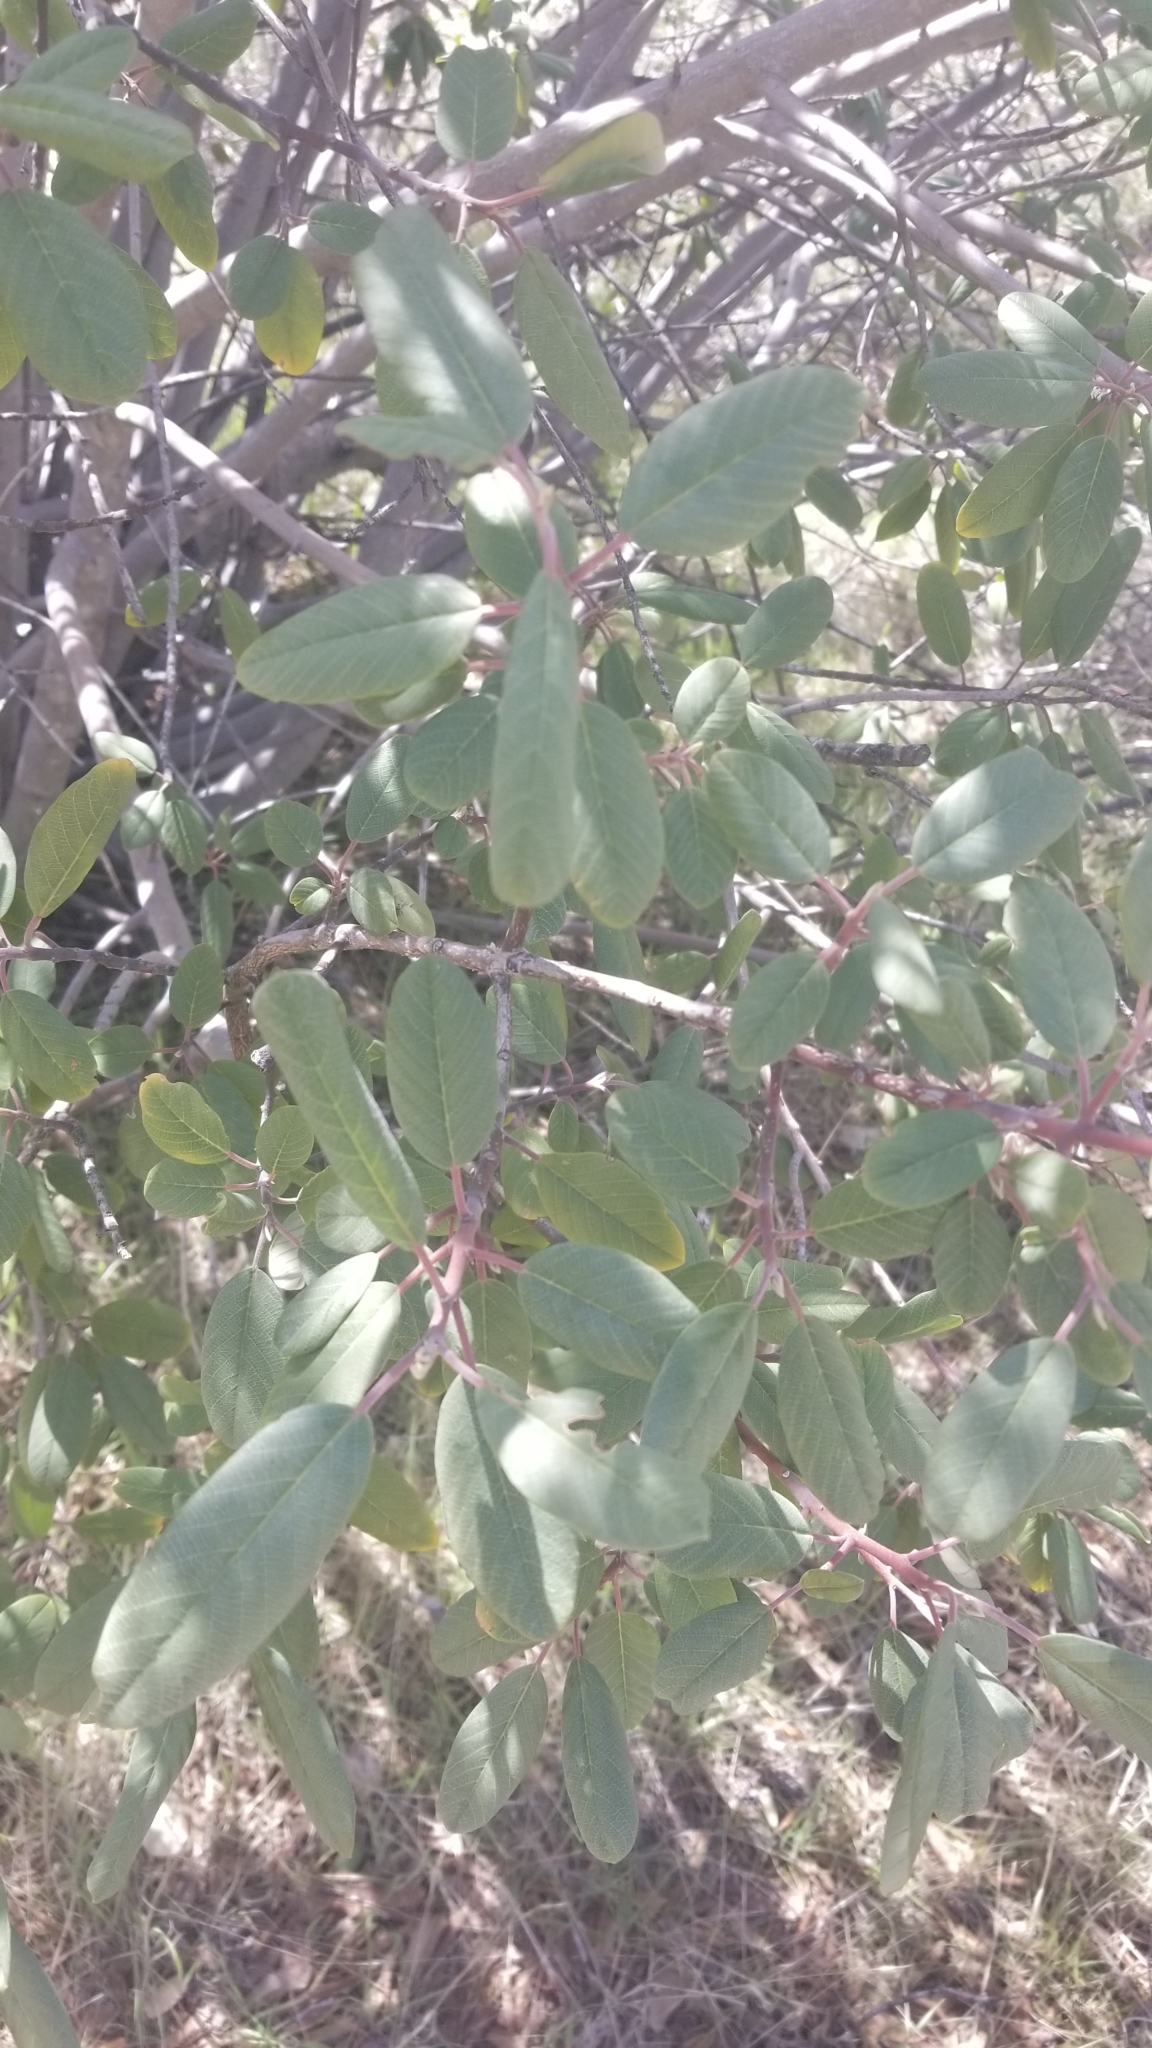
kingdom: Plantae
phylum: Tracheophyta
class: Magnoliopsida
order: Rosales
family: Rhamnaceae
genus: Frangula
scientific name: Frangula californica
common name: California buckthorn
